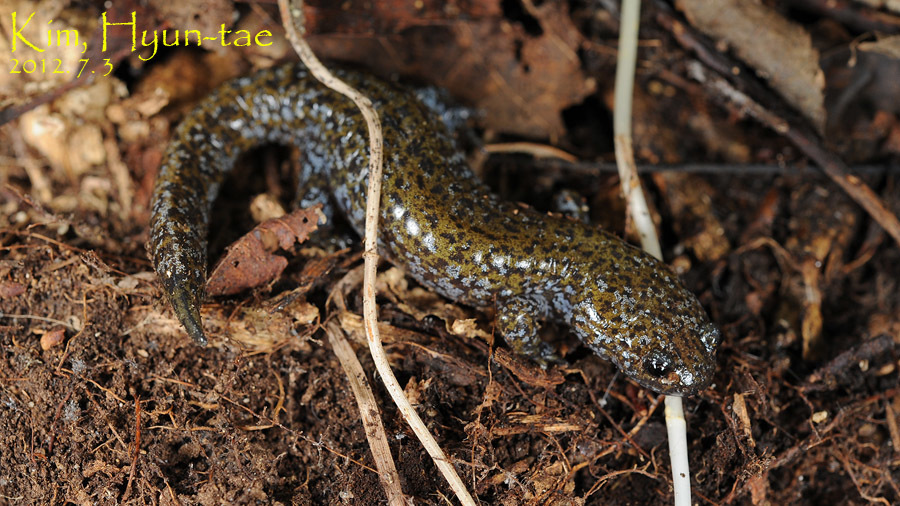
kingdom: Animalia
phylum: Chordata
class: Amphibia
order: Caudata
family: Hynobiidae
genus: Hynobius
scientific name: Hynobius leechii
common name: Gensan salamander
